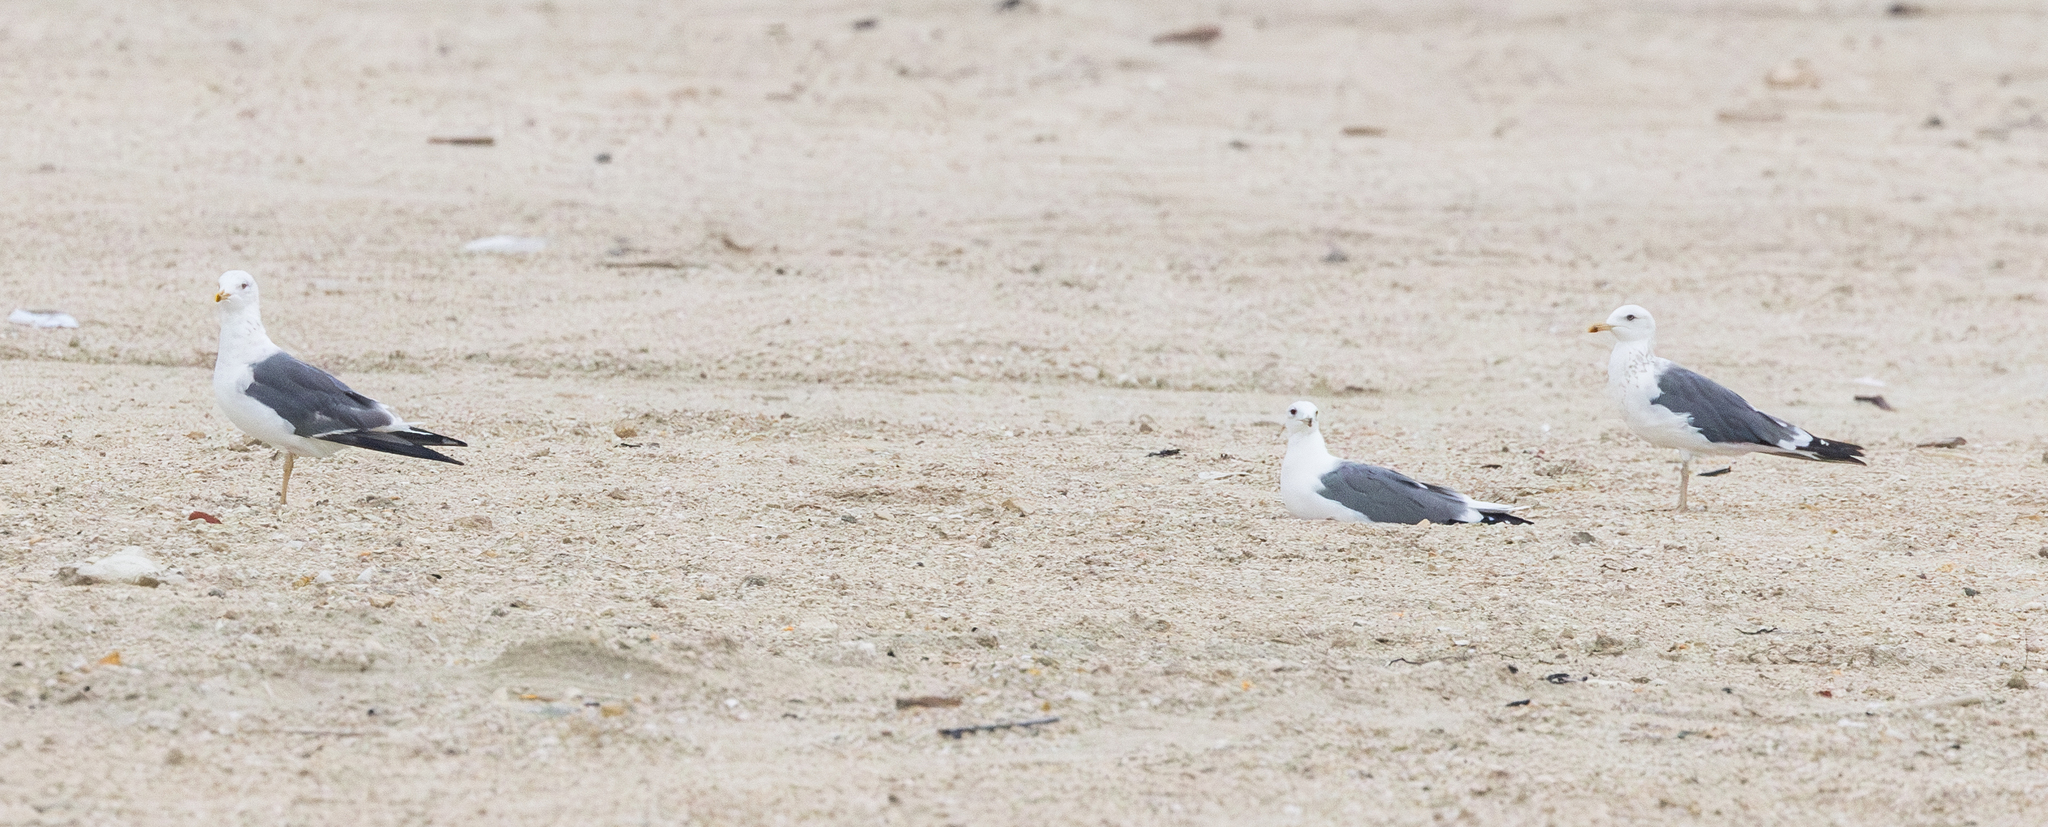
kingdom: Animalia
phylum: Chordata
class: Aves
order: Charadriiformes
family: Laridae
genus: Larus
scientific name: Larus fuscus
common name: Lesser black-backed gull
